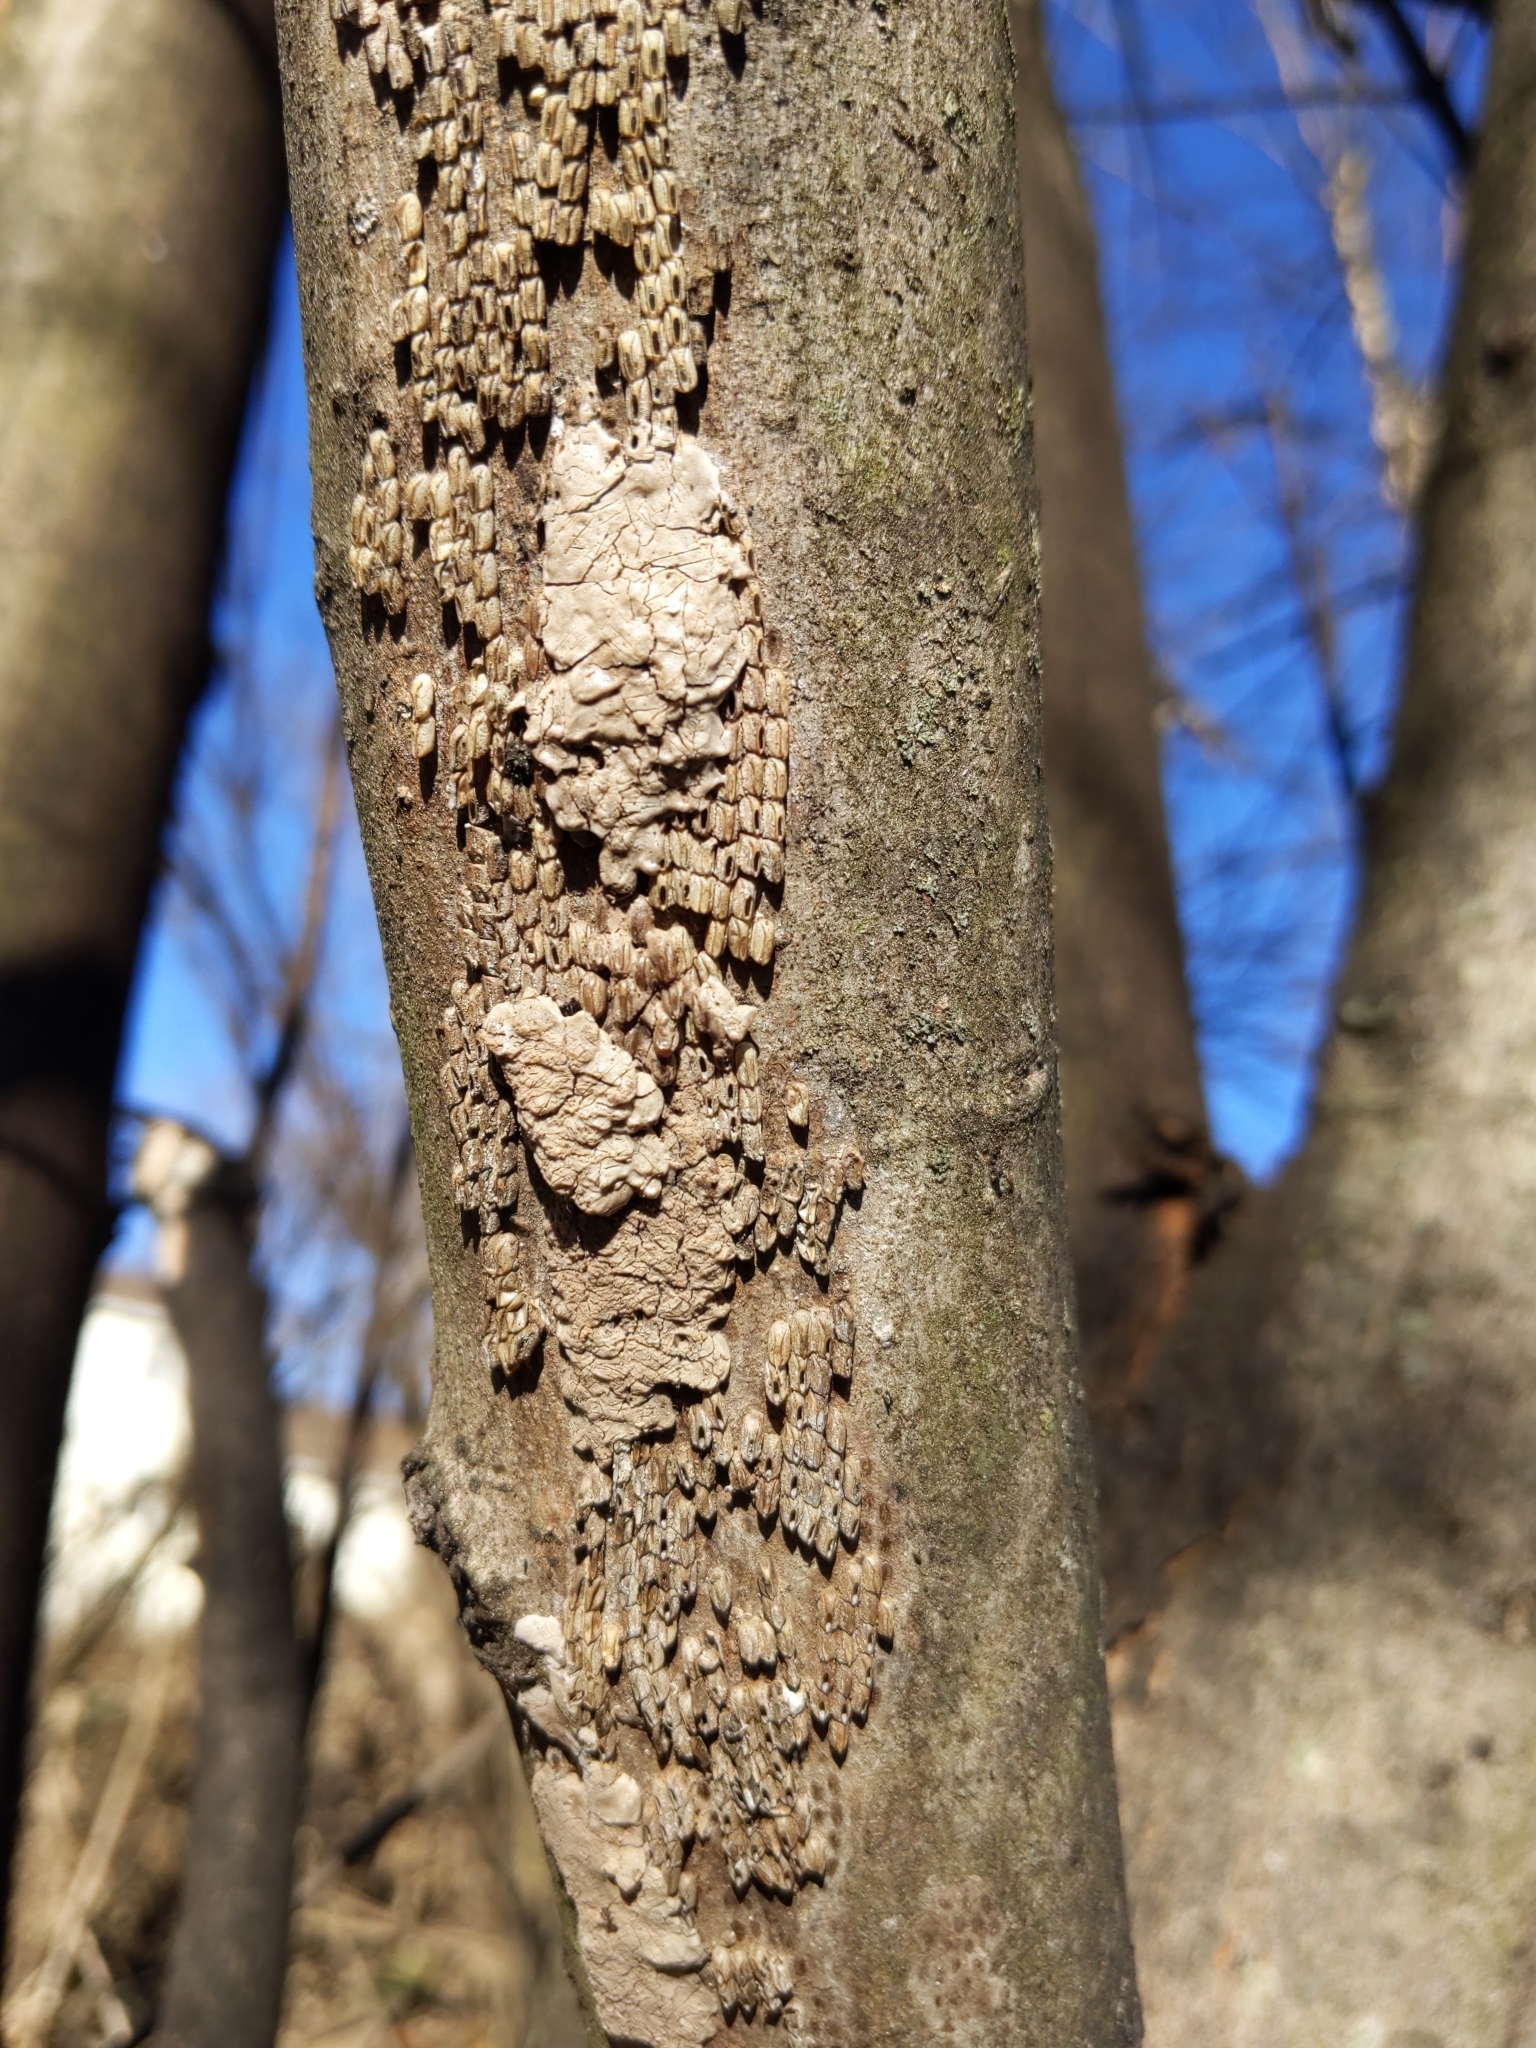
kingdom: Animalia
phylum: Arthropoda
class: Insecta
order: Hemiptera
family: Fulgoridae
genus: Lycorma
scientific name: Lycorma delicatula
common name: Spotted lanternfly
